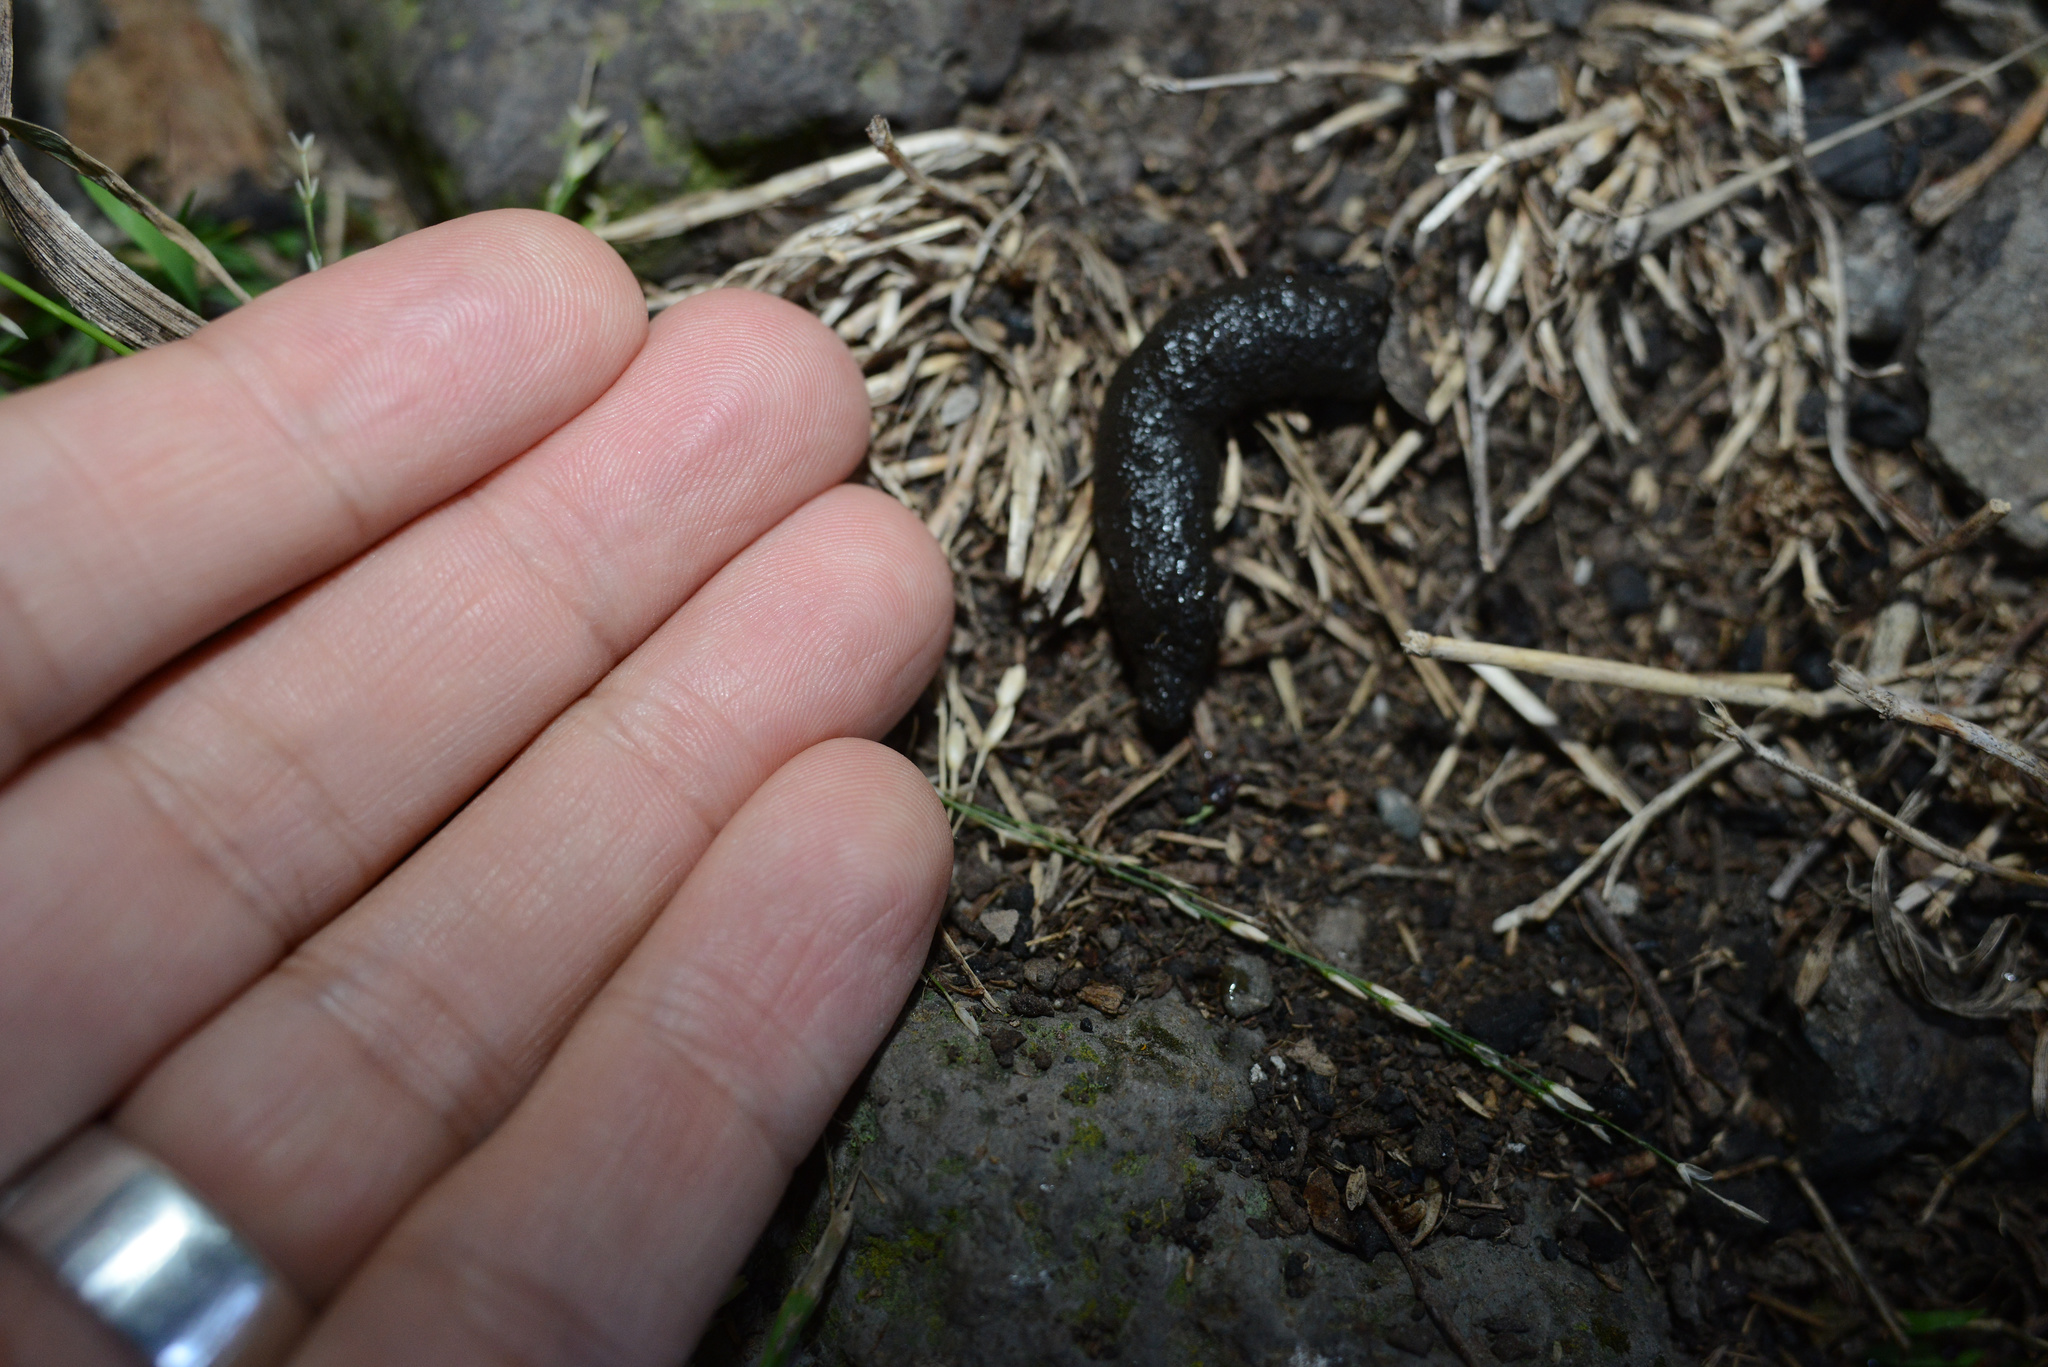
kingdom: Animalia
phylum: Chordata
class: Mammalia
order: Erinaceomorpha
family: Erinaceidae
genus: Erinaceus
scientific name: Erinaceus europaeus
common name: West european hedgehog
